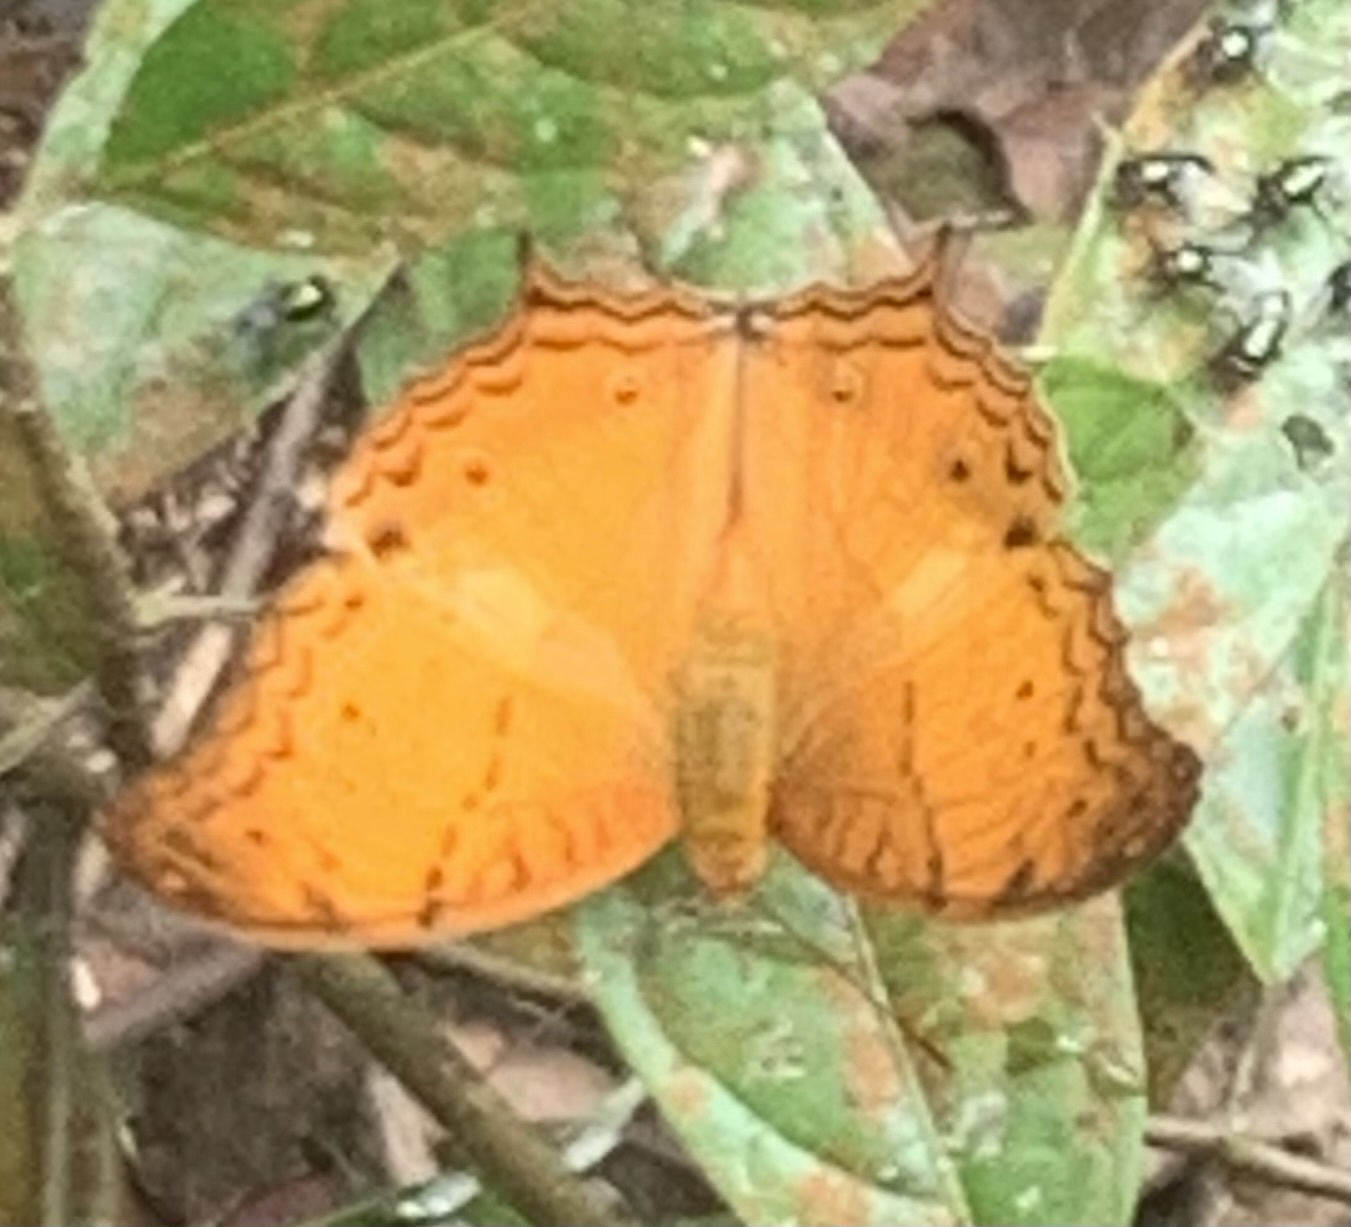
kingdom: Animalia
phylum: Arthropoda
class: Insecta
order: Lepidoptera
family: Nymphalidae
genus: Vindula
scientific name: Vindula deione
